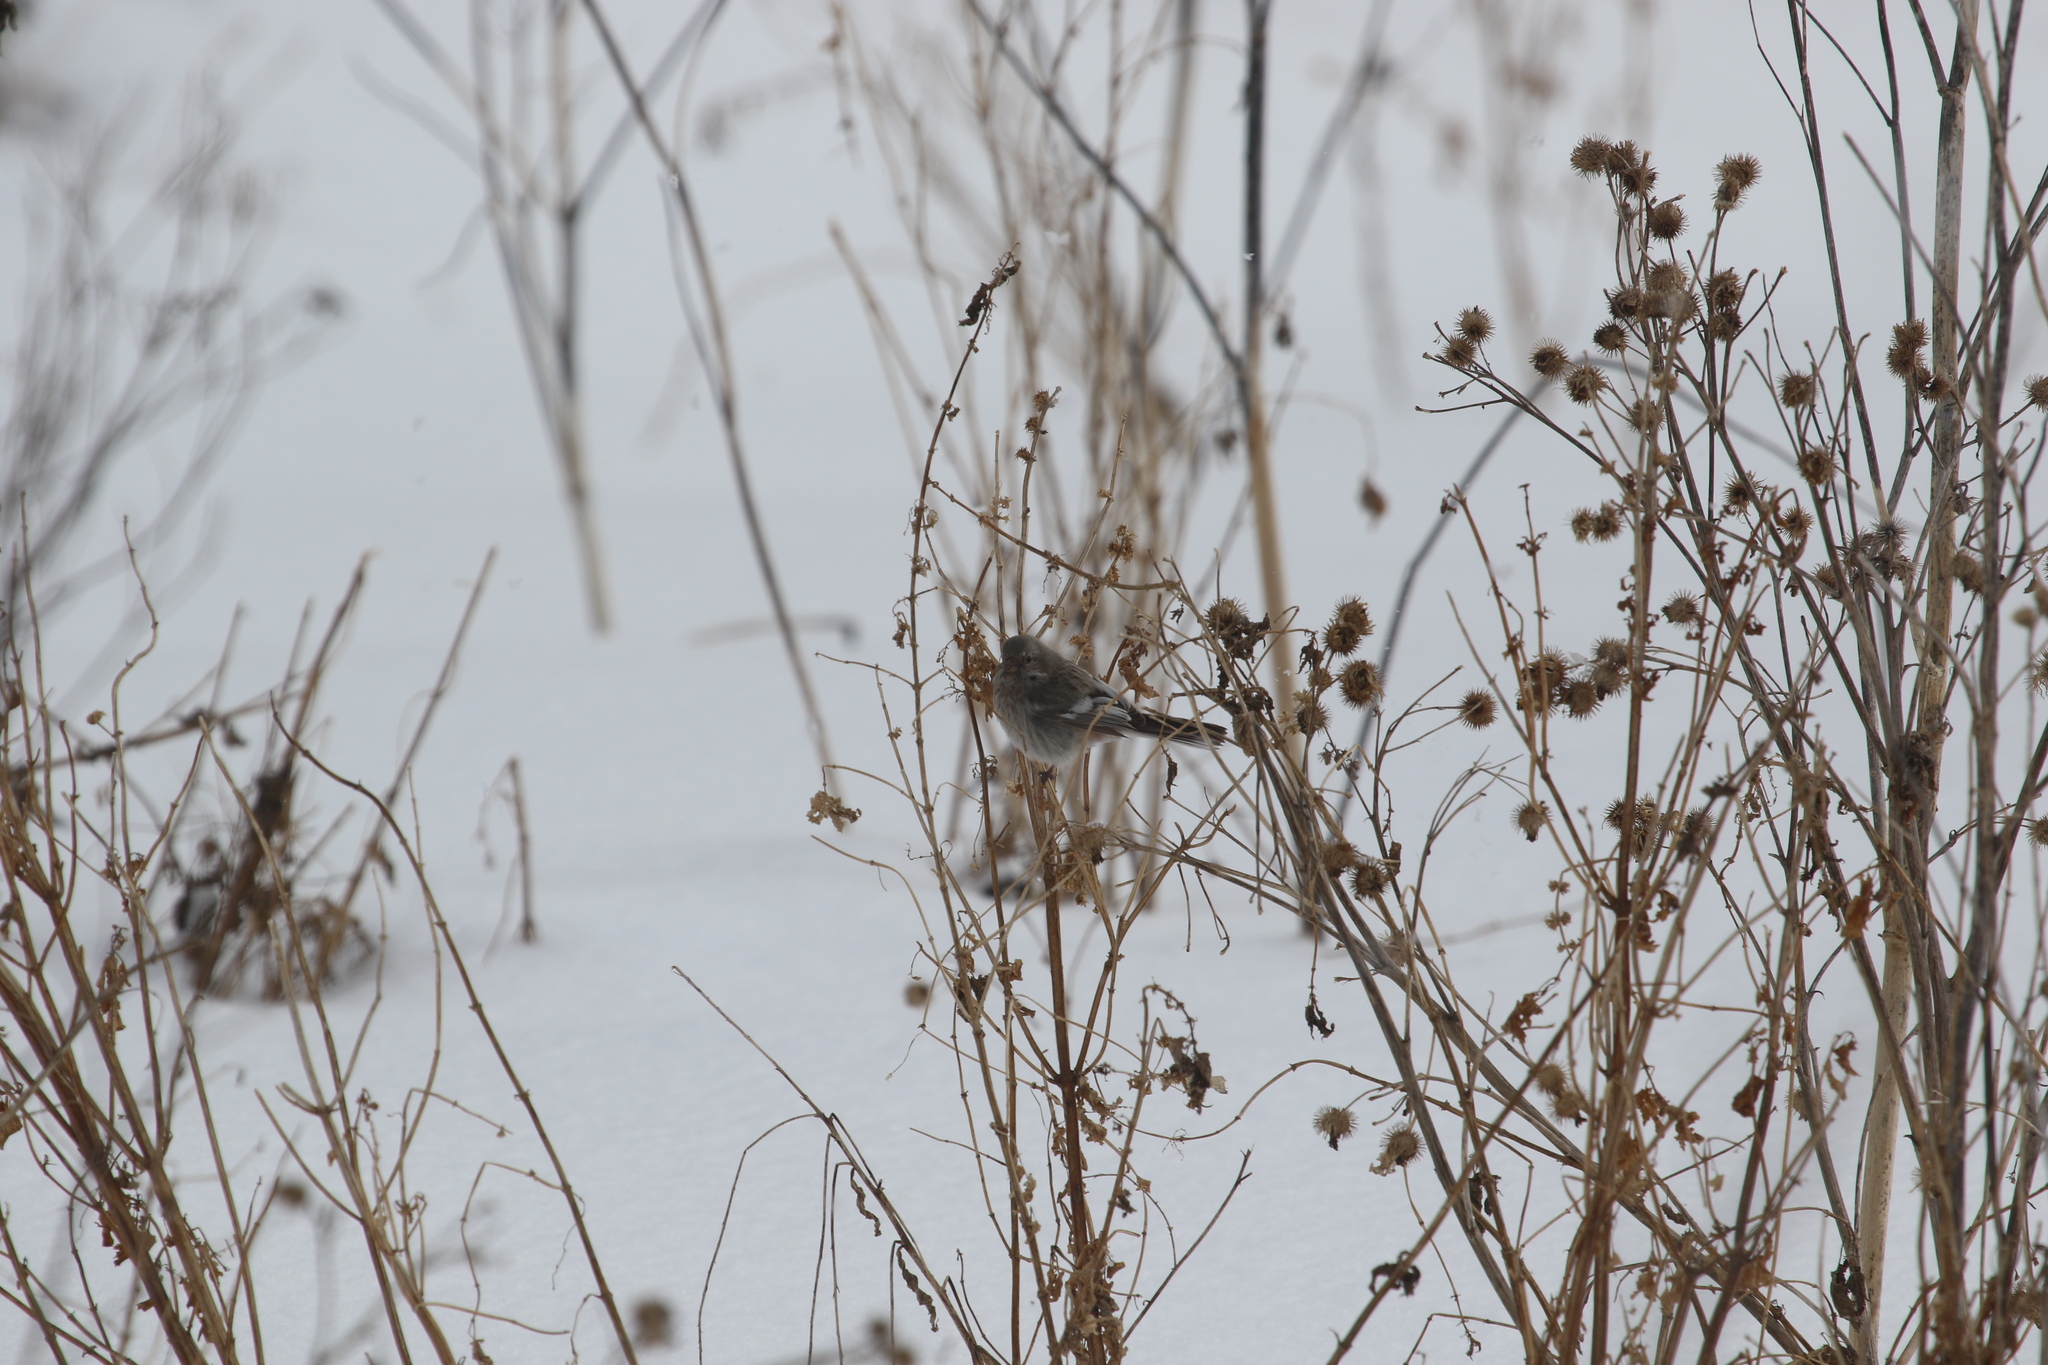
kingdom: Animalia
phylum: Chordata
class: Aves
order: Passeriformes
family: Fringillidae
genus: Carpodacus
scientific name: Carpodacus sibiricus
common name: Long-tailed rosefinch
